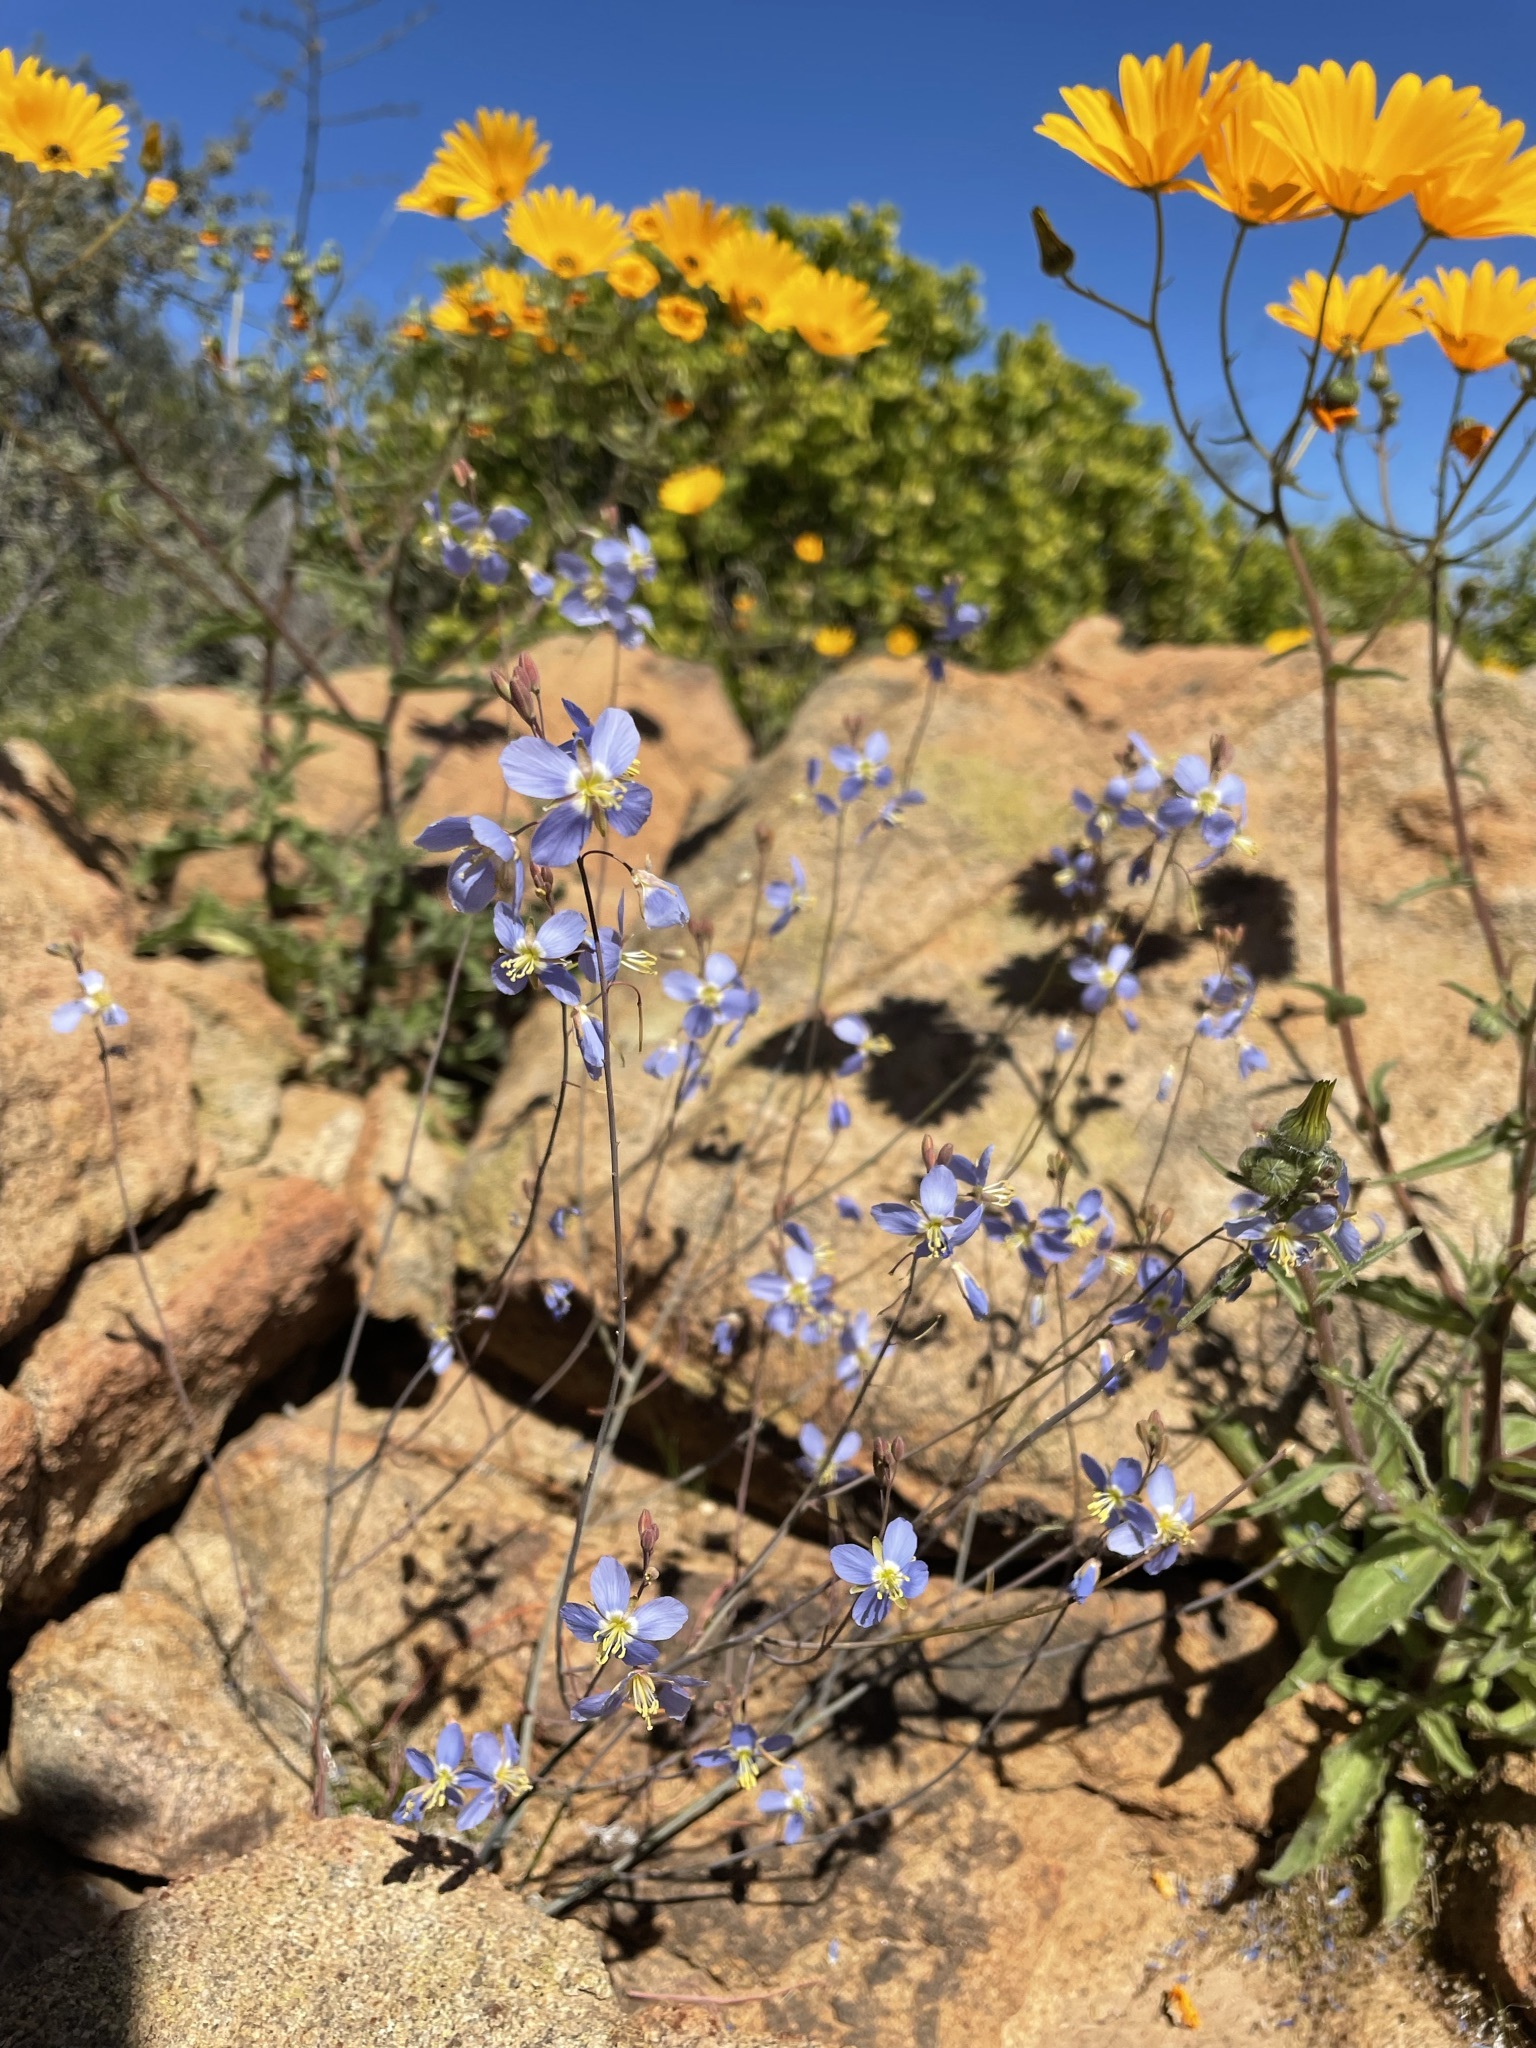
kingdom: Plantae
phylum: Tracheophyta
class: Magnoliopsida
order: Brassicales
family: Brassicaceae
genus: Heliophila
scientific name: Heliophila lactea
